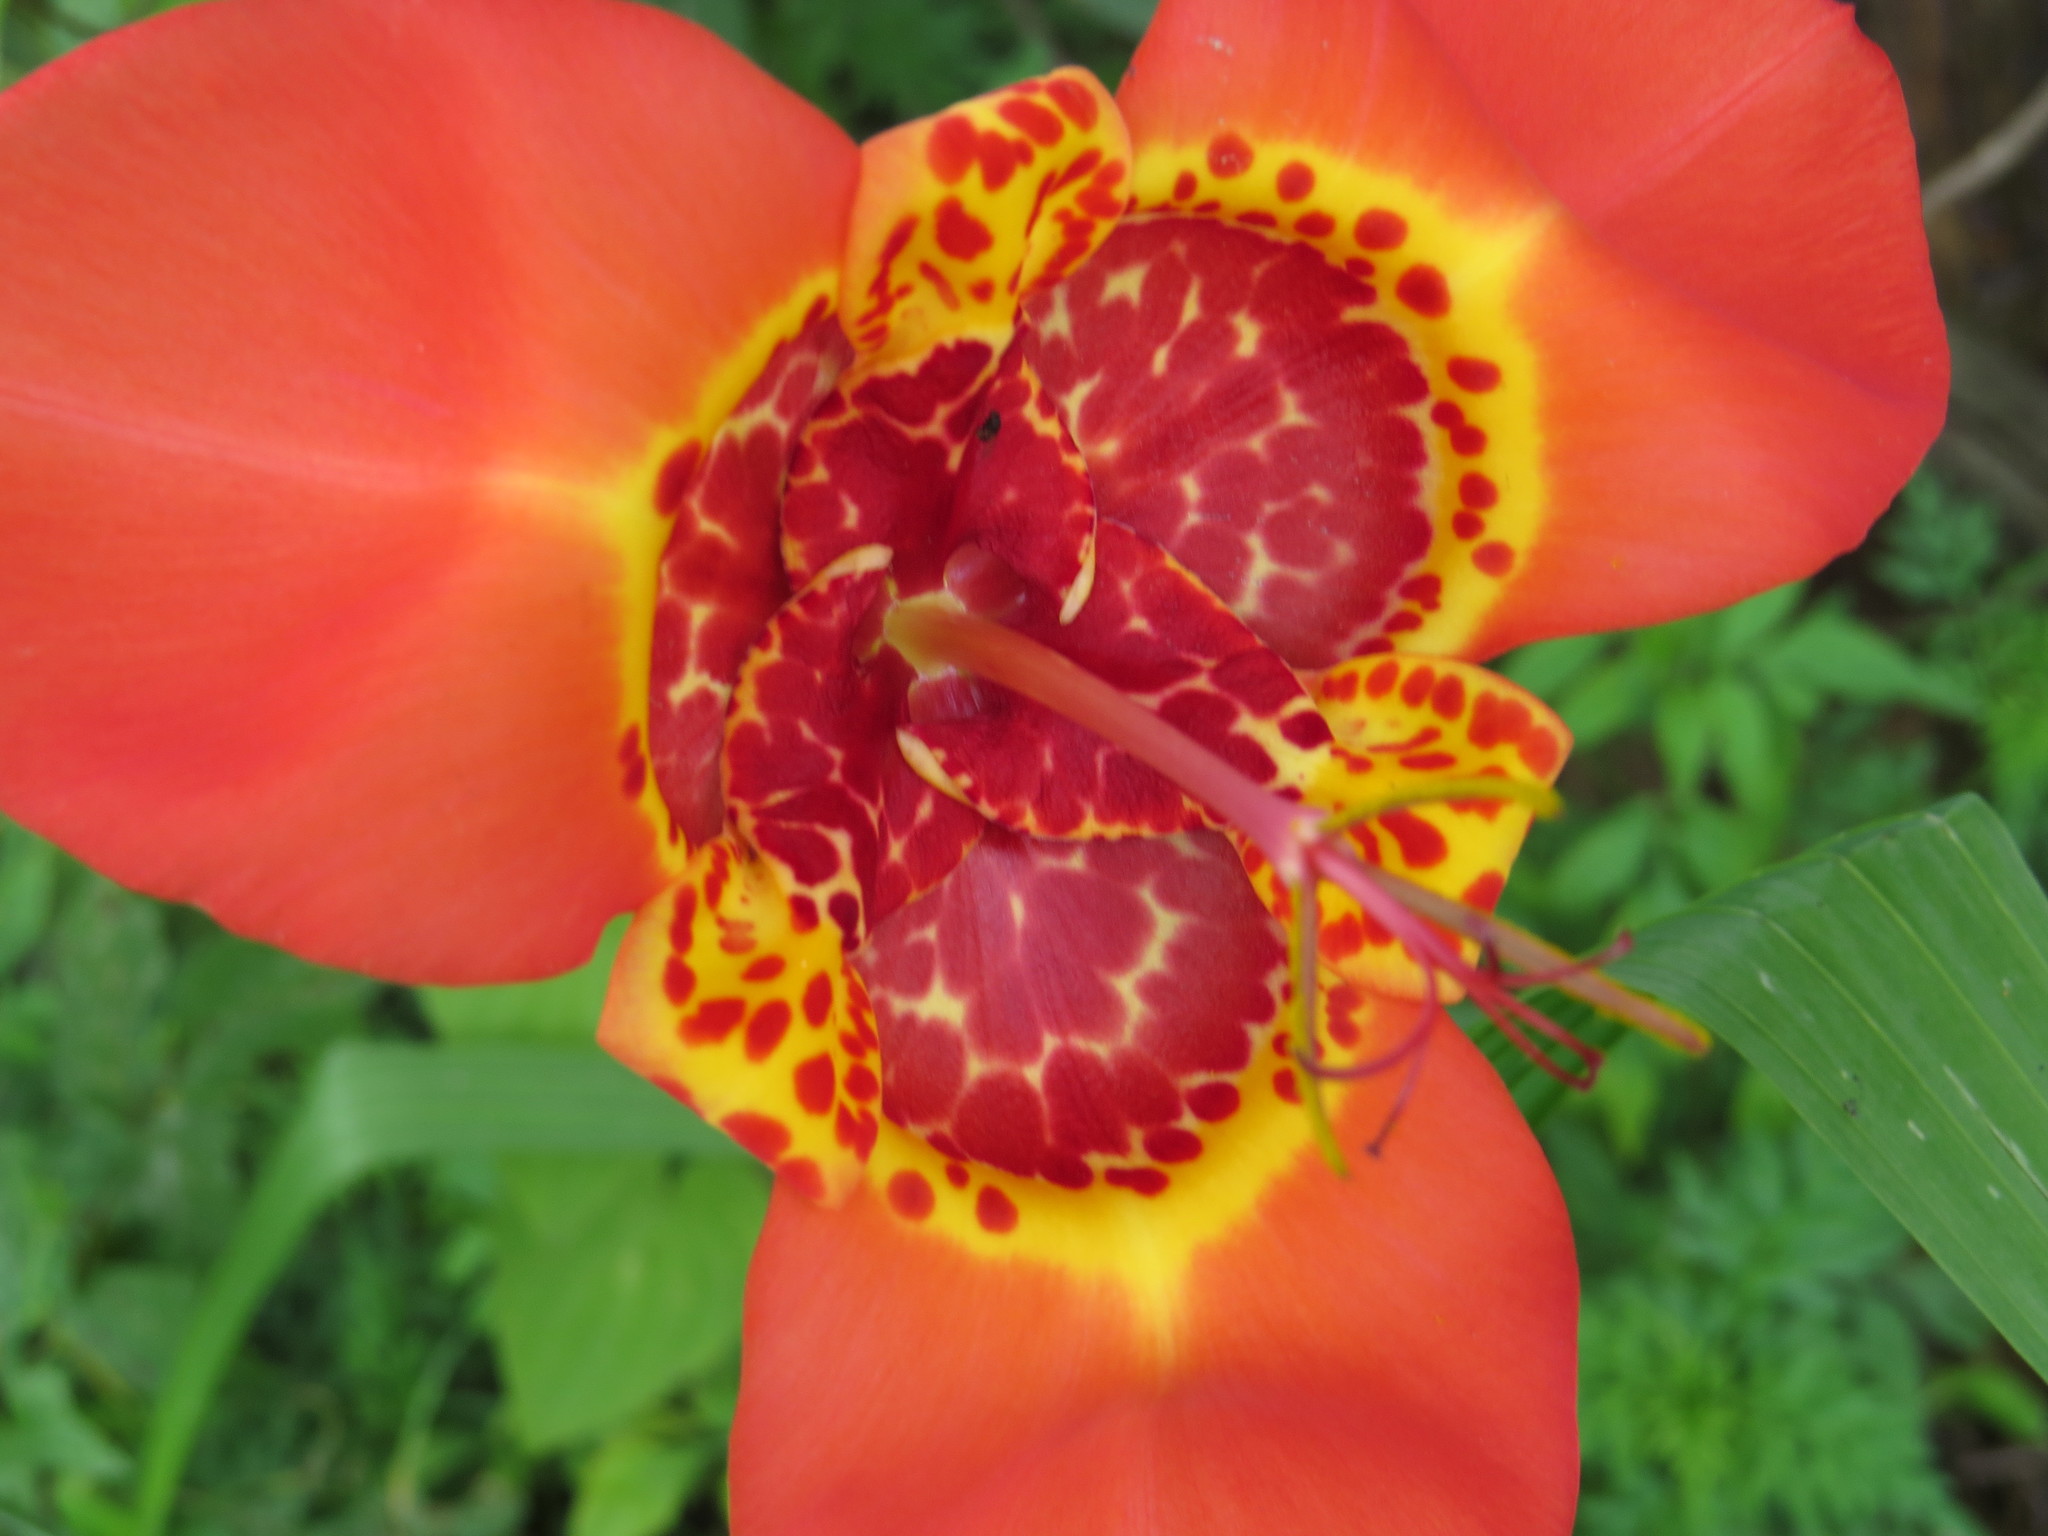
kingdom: Plantae
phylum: Tracheophyta
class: Liliopsida
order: Asparagales
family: Iridaceae
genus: Tigridia
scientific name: Tigridia pavonia
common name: Peacock-flower
